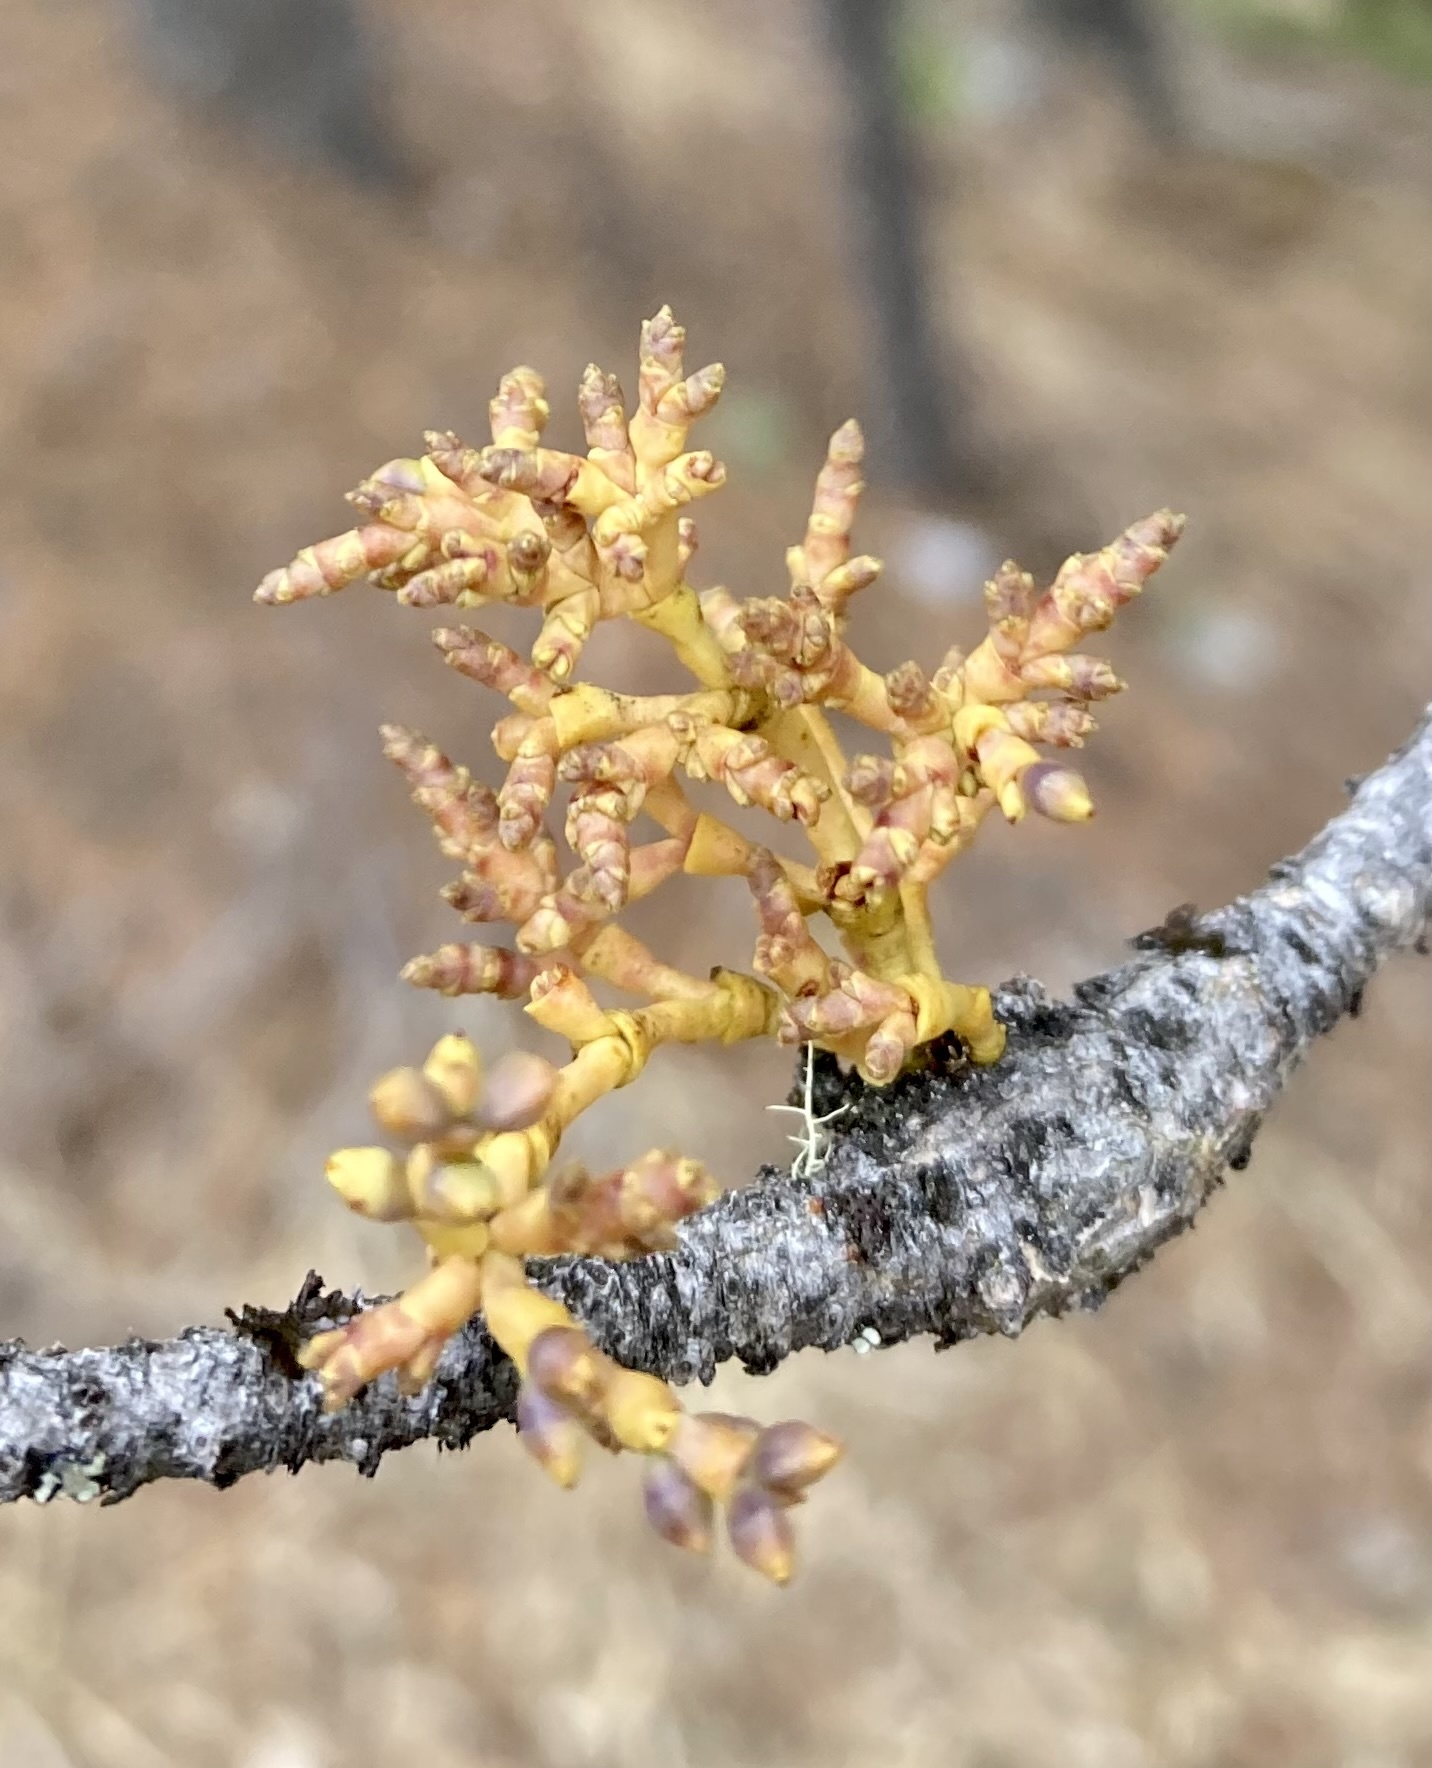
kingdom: Plantae
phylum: Tracheophyta
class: Magnoliopsida
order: Santalales
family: Viscaceae
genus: Arceuthobium
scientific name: Arceuthobium americanum
